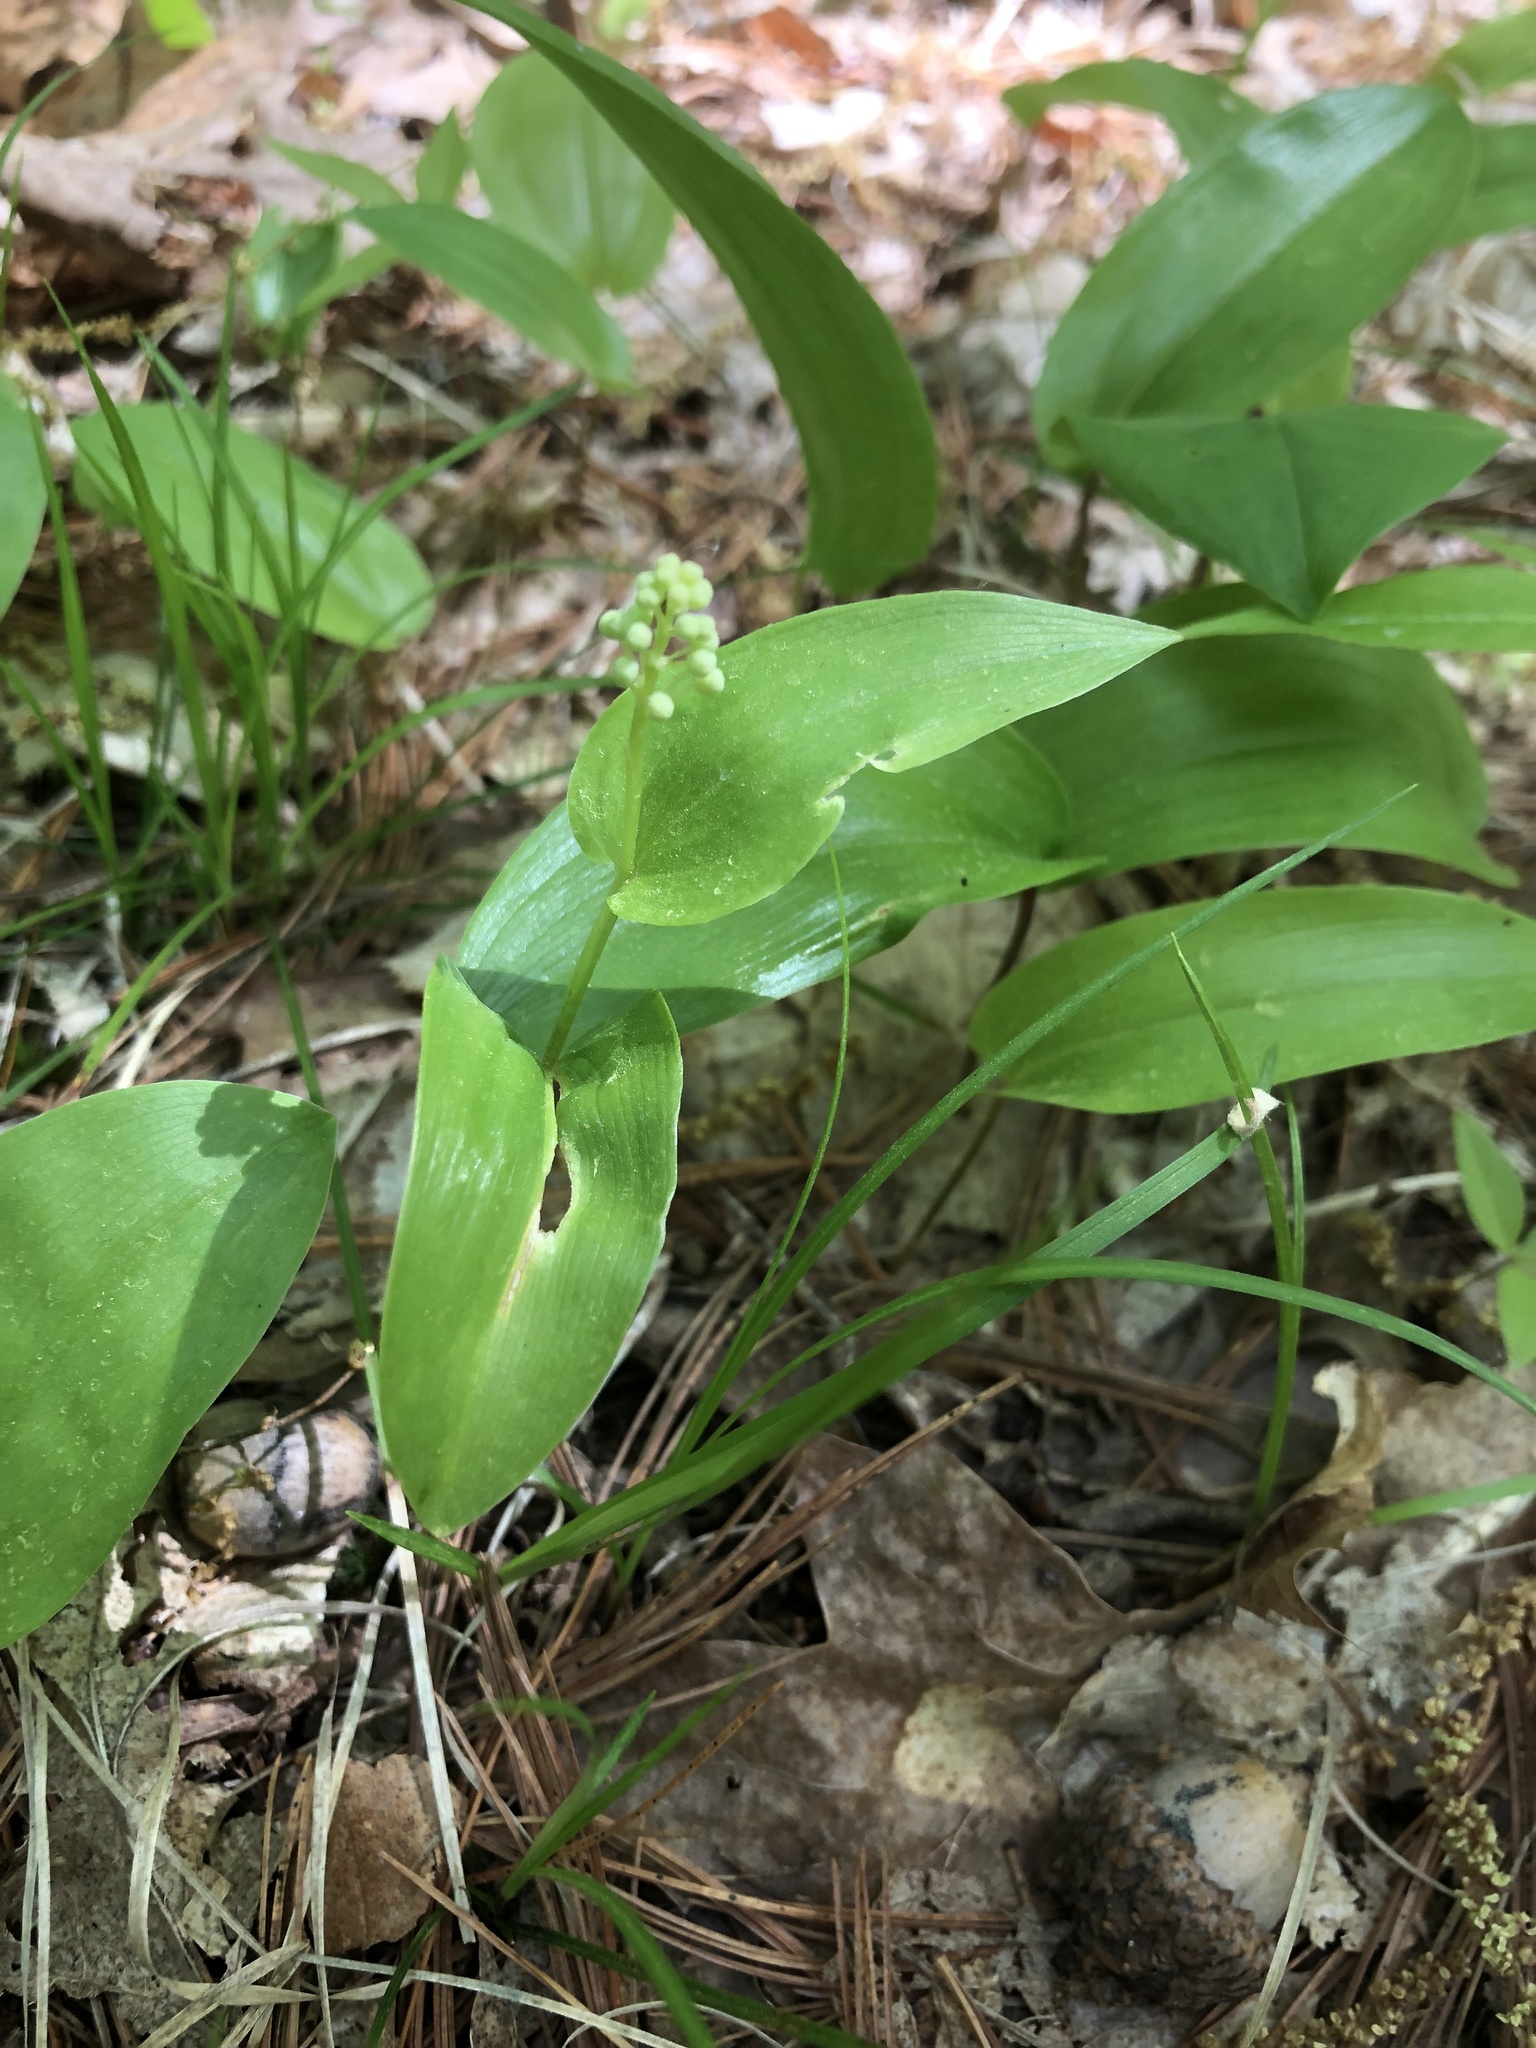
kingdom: Plantae
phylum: Tracheophyta
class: Liliopsida
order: Asparagales
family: Asparagaceae
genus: Maianthemum
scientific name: Maianthemum canadense
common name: False lily-of-the-valley
